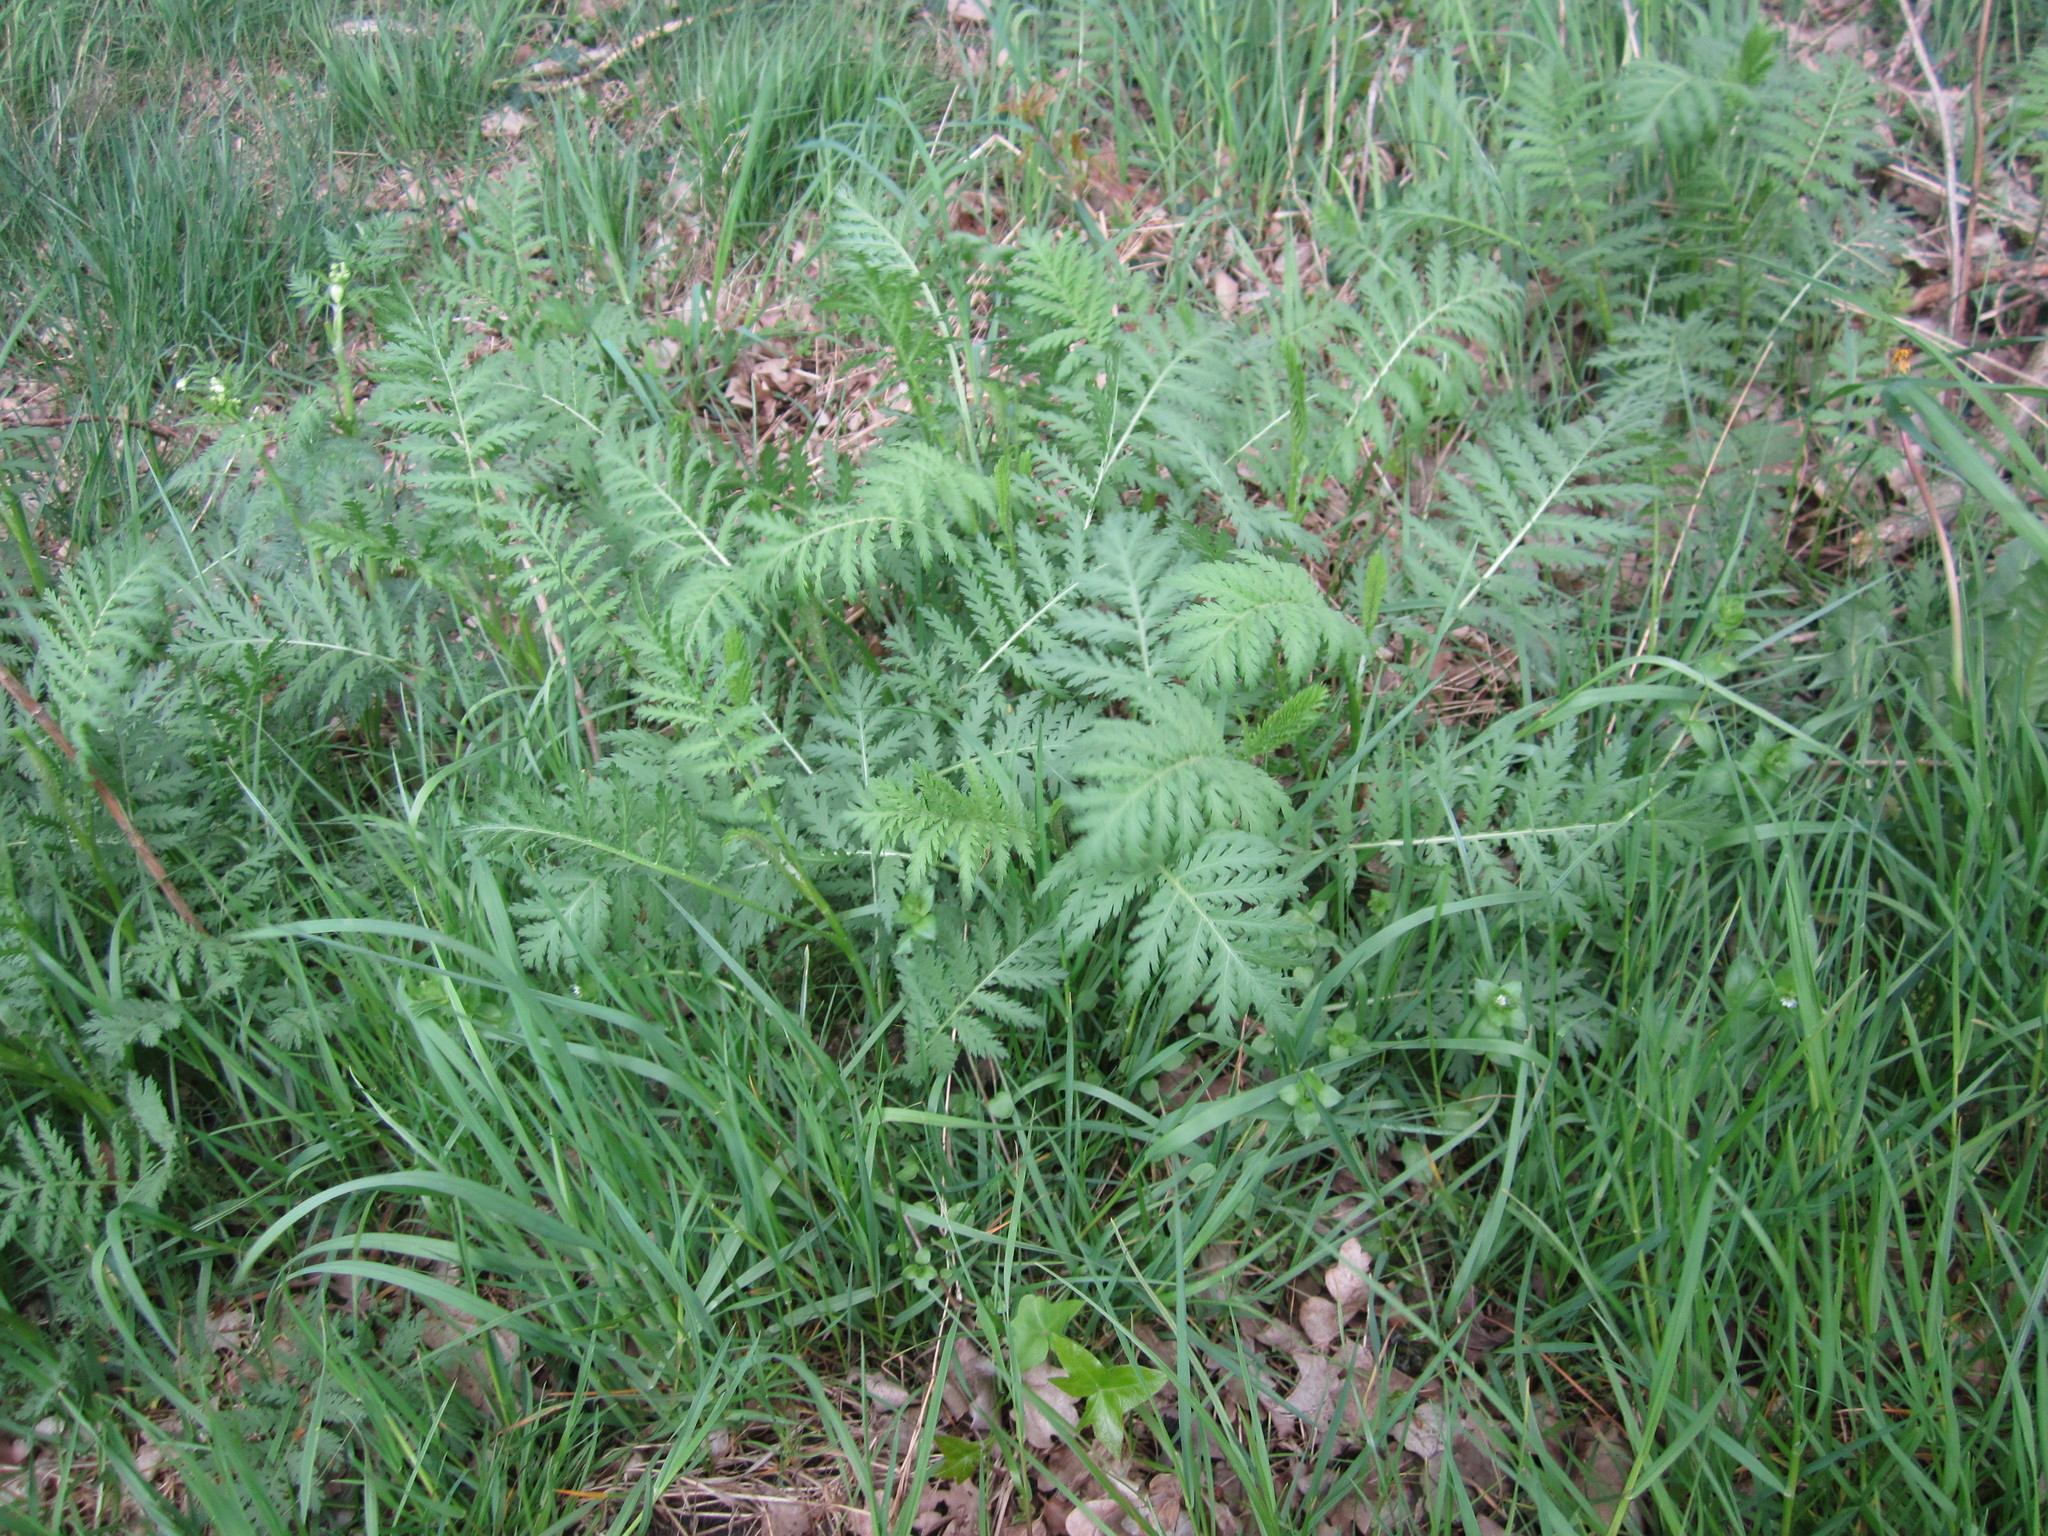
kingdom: Plantae
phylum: Tracheophyta
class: Magnoliopsida
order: Asterales
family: Asteraceae
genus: Tanacetum
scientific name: Tanacetum vulgare
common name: Common tansy
